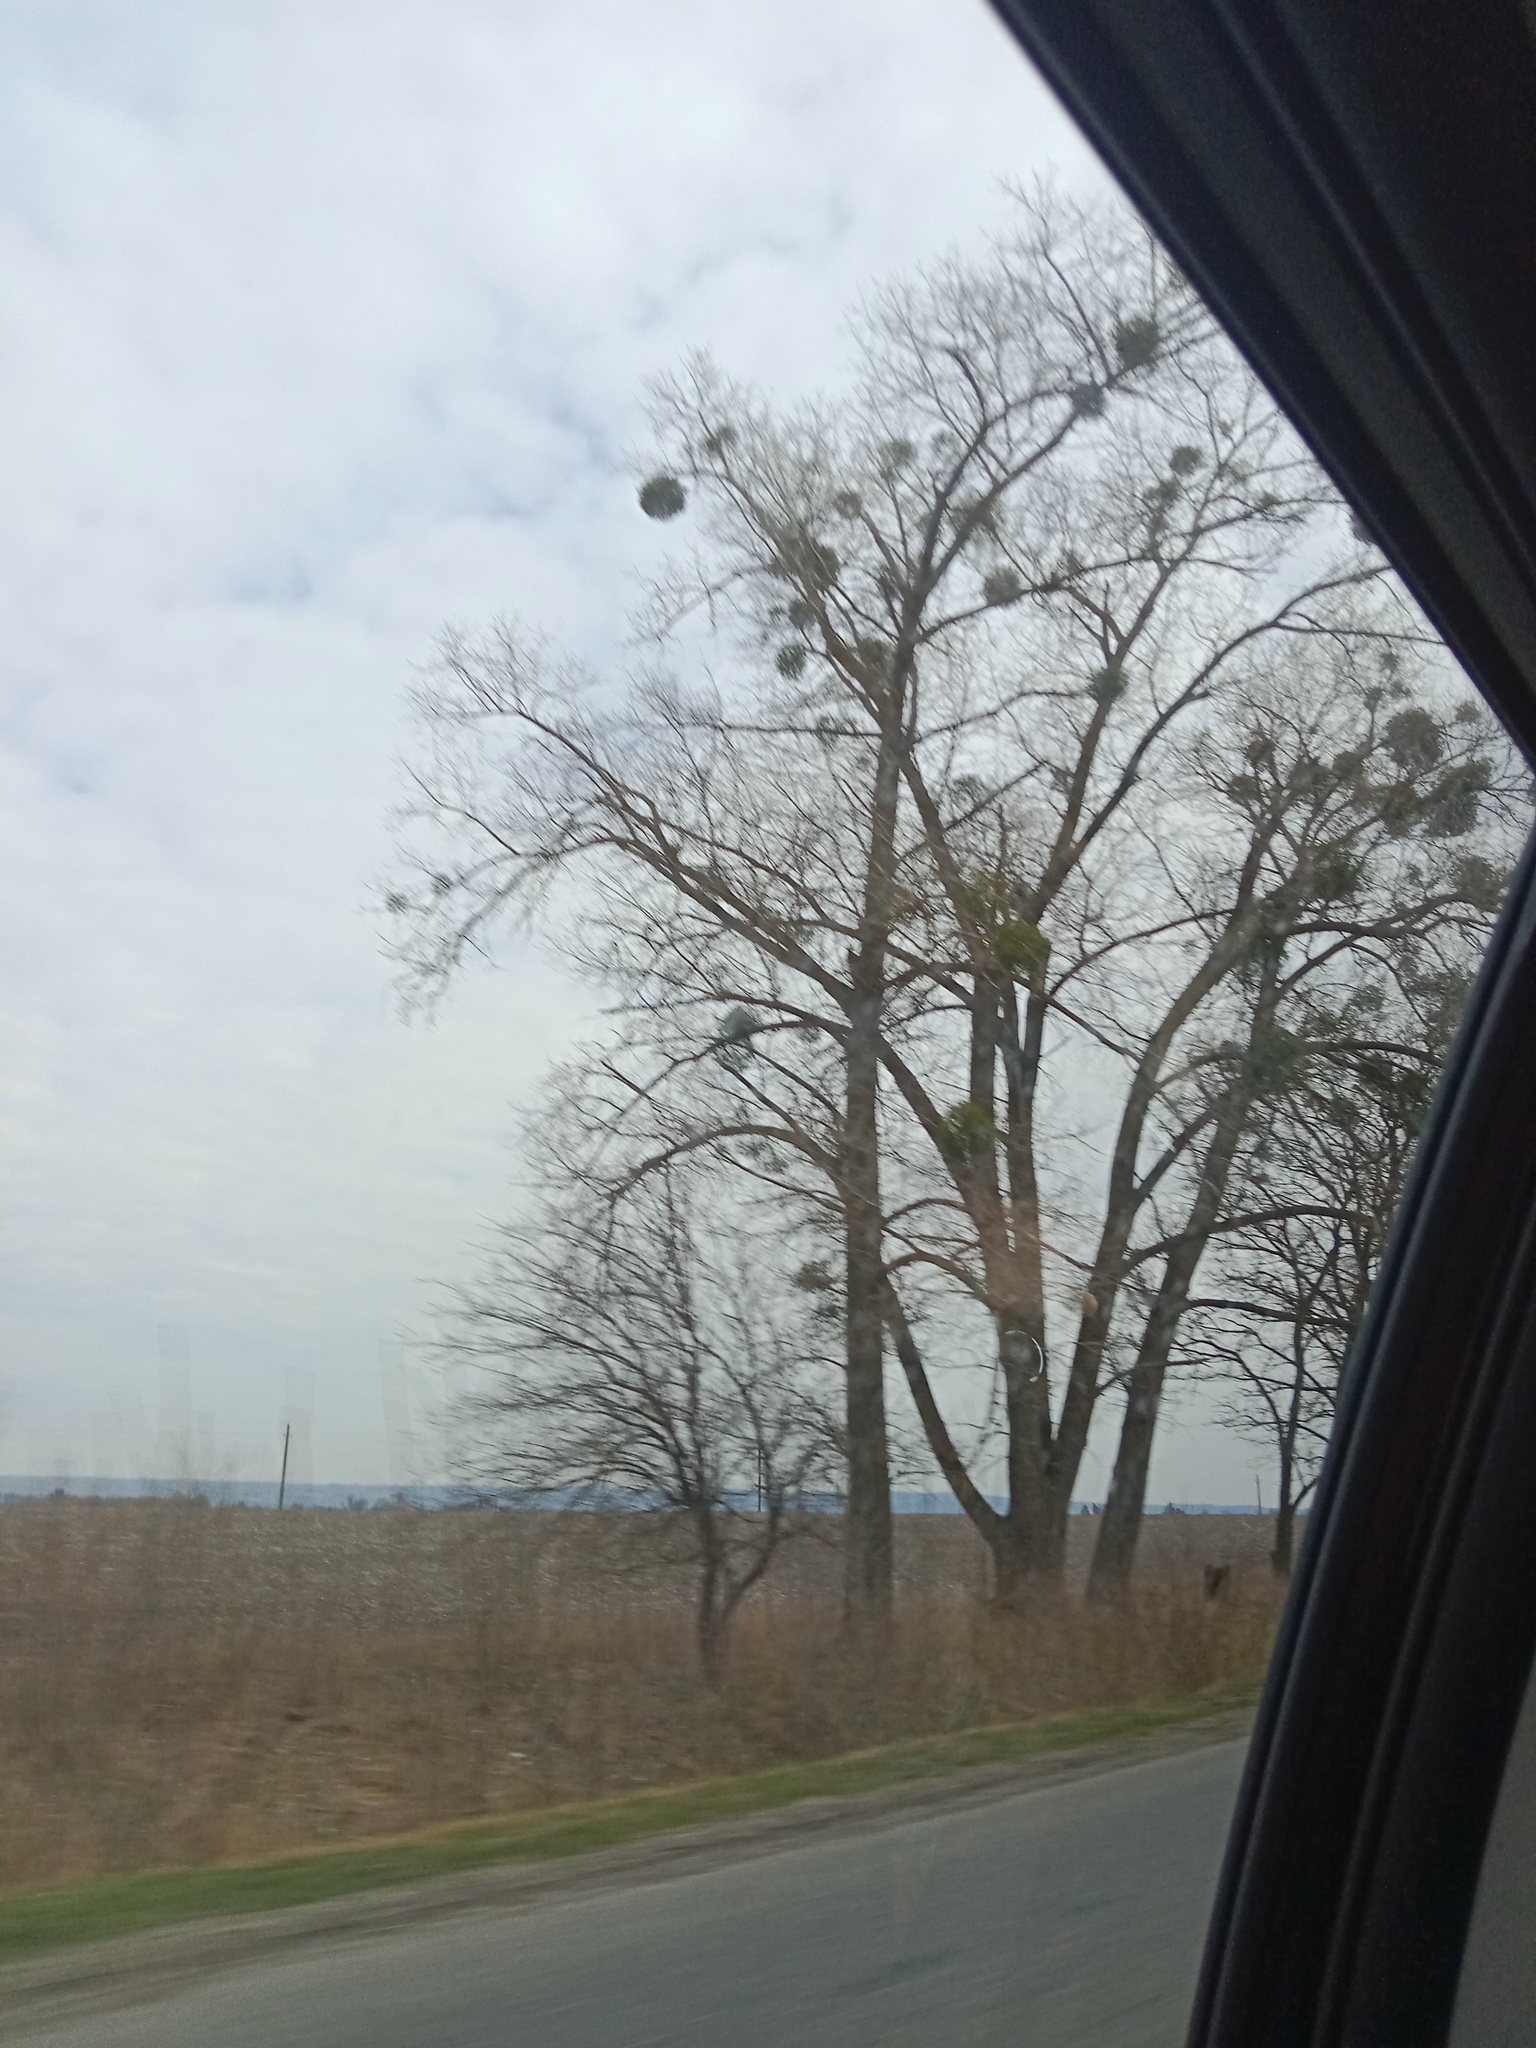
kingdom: Plantae
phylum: Tracheophyta
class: Magnoliopsida
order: Santalales
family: Viscaceae
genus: Viscum
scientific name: Viscum album
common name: Mistletoe
